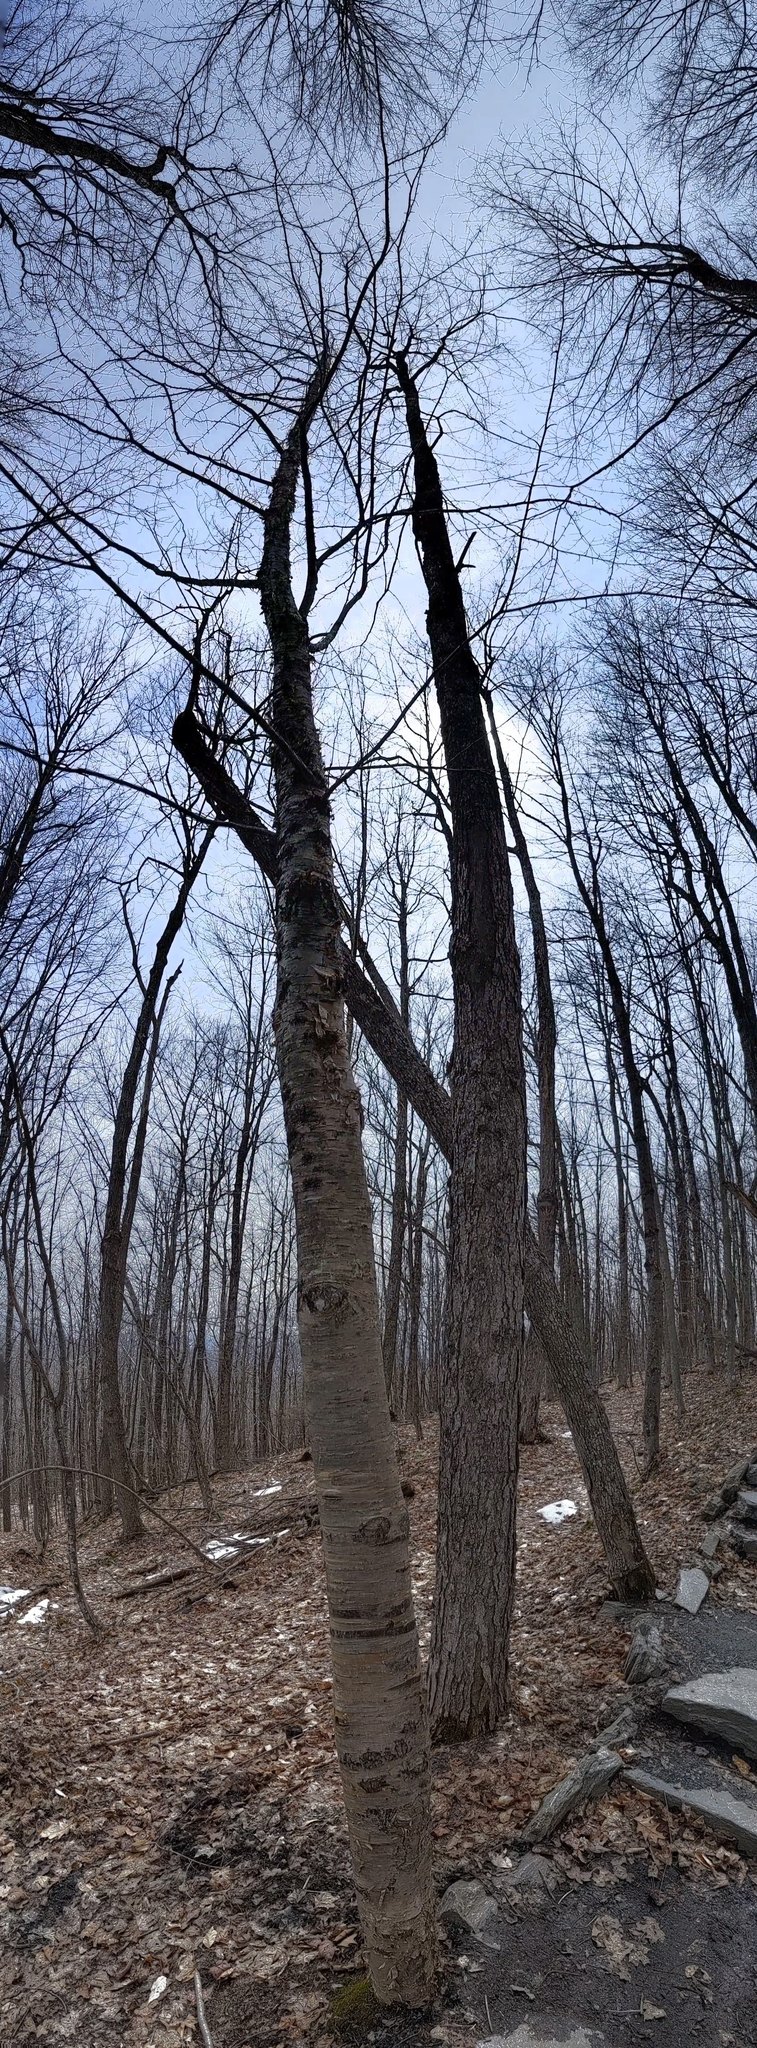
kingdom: Plantae
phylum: Tracheophyta
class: Magnoliopsida
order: Fagales
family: Betulaceae
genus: Betula
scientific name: Betula alleghaniensis
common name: Yellow birch
